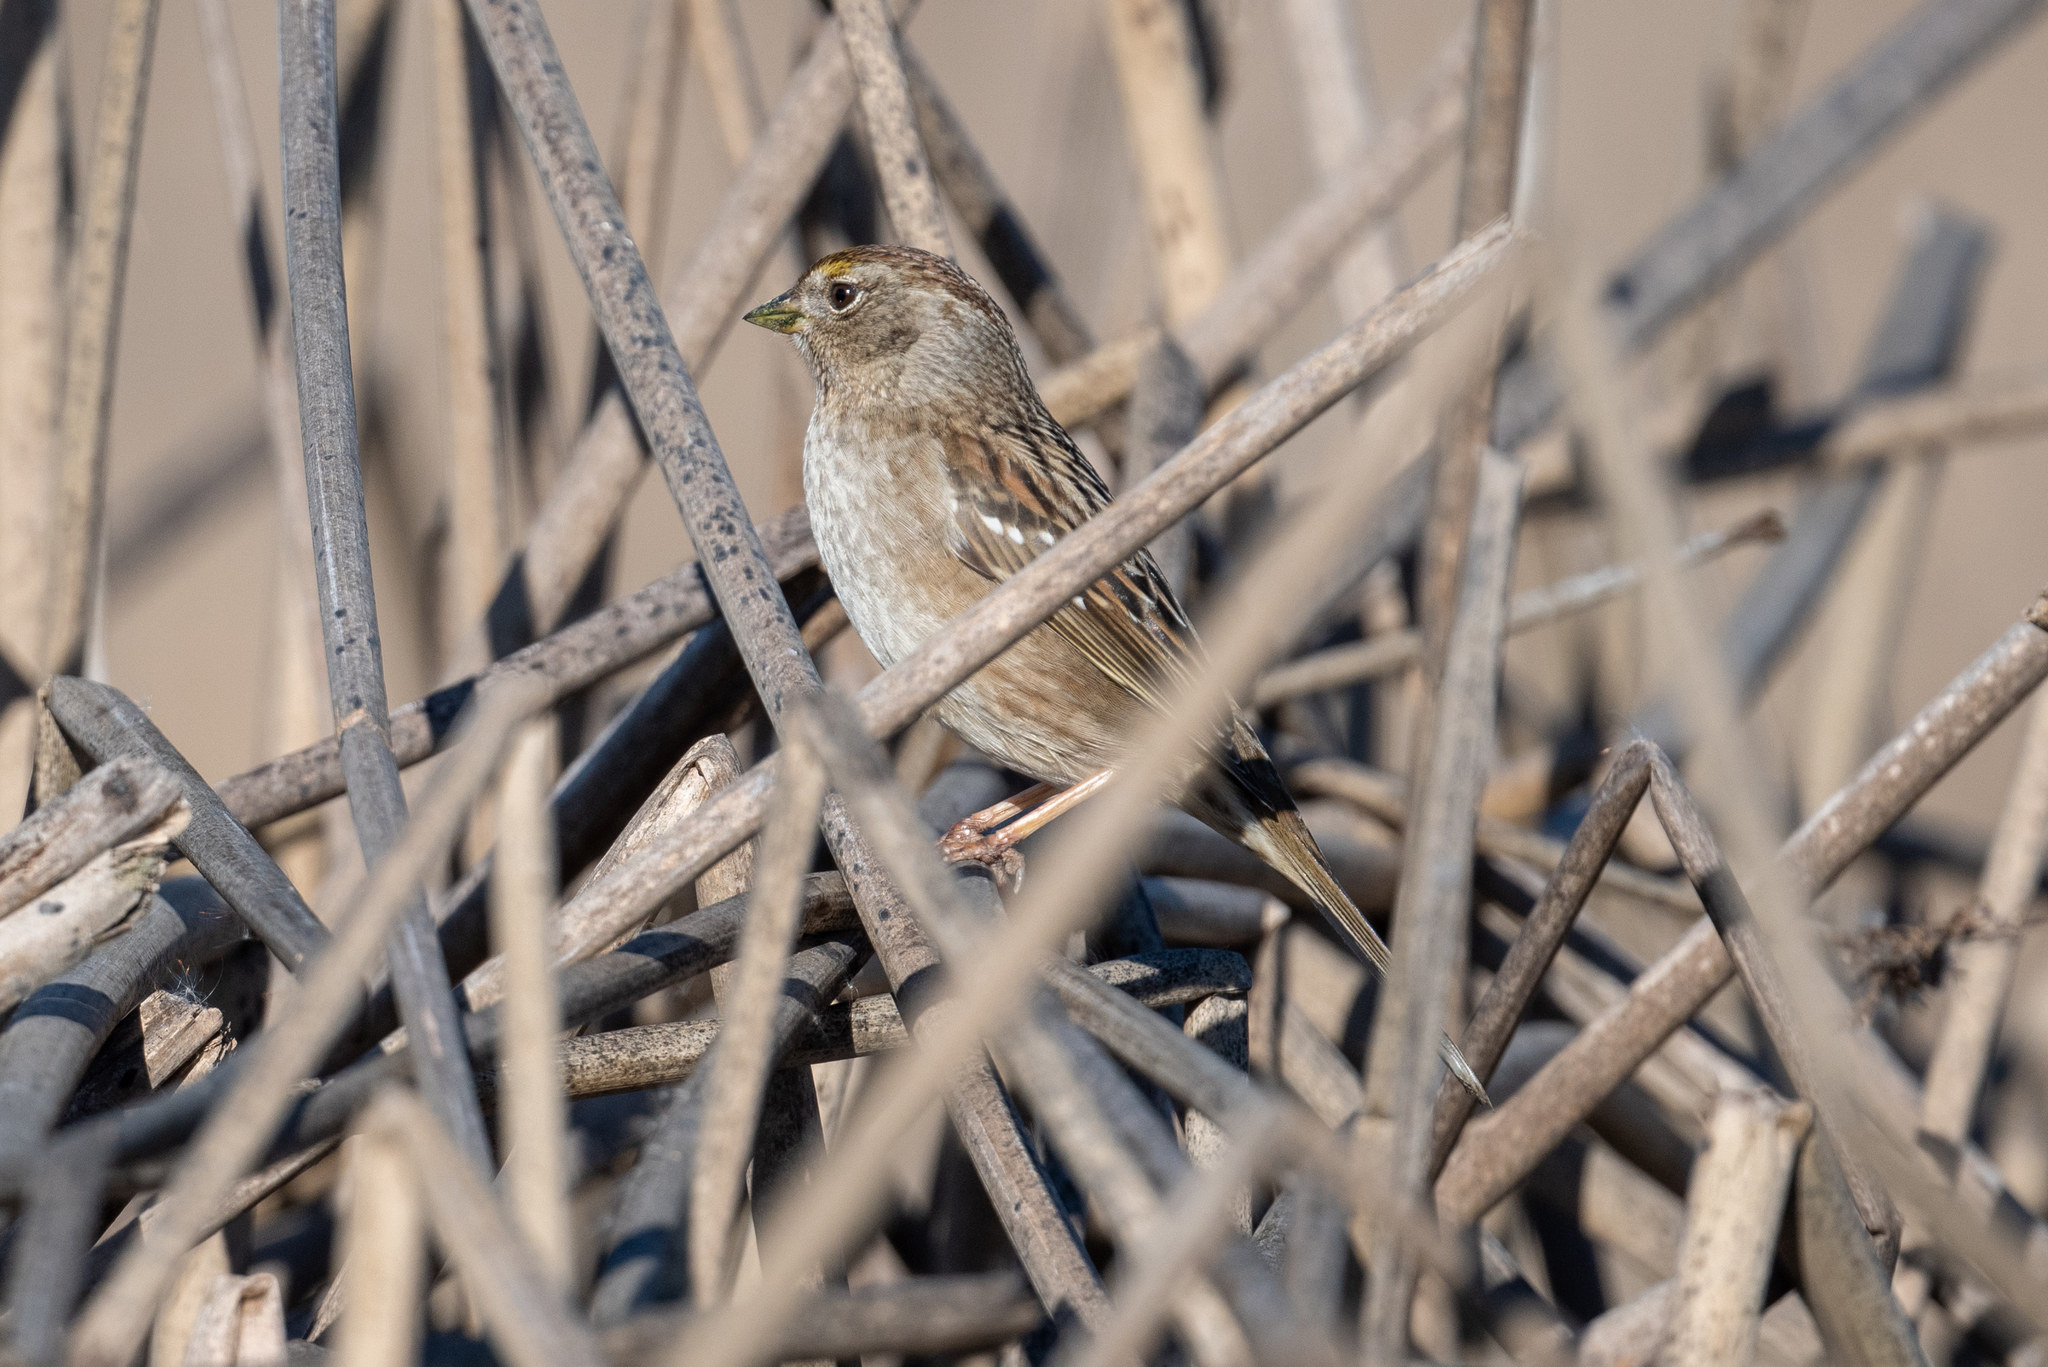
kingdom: Animalia
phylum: Chordata
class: Aves
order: Passeriformes
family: Passerellidae
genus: Zonotrichia
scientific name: Zonotrichia atricapilla
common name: Golden-crowned sparrow
